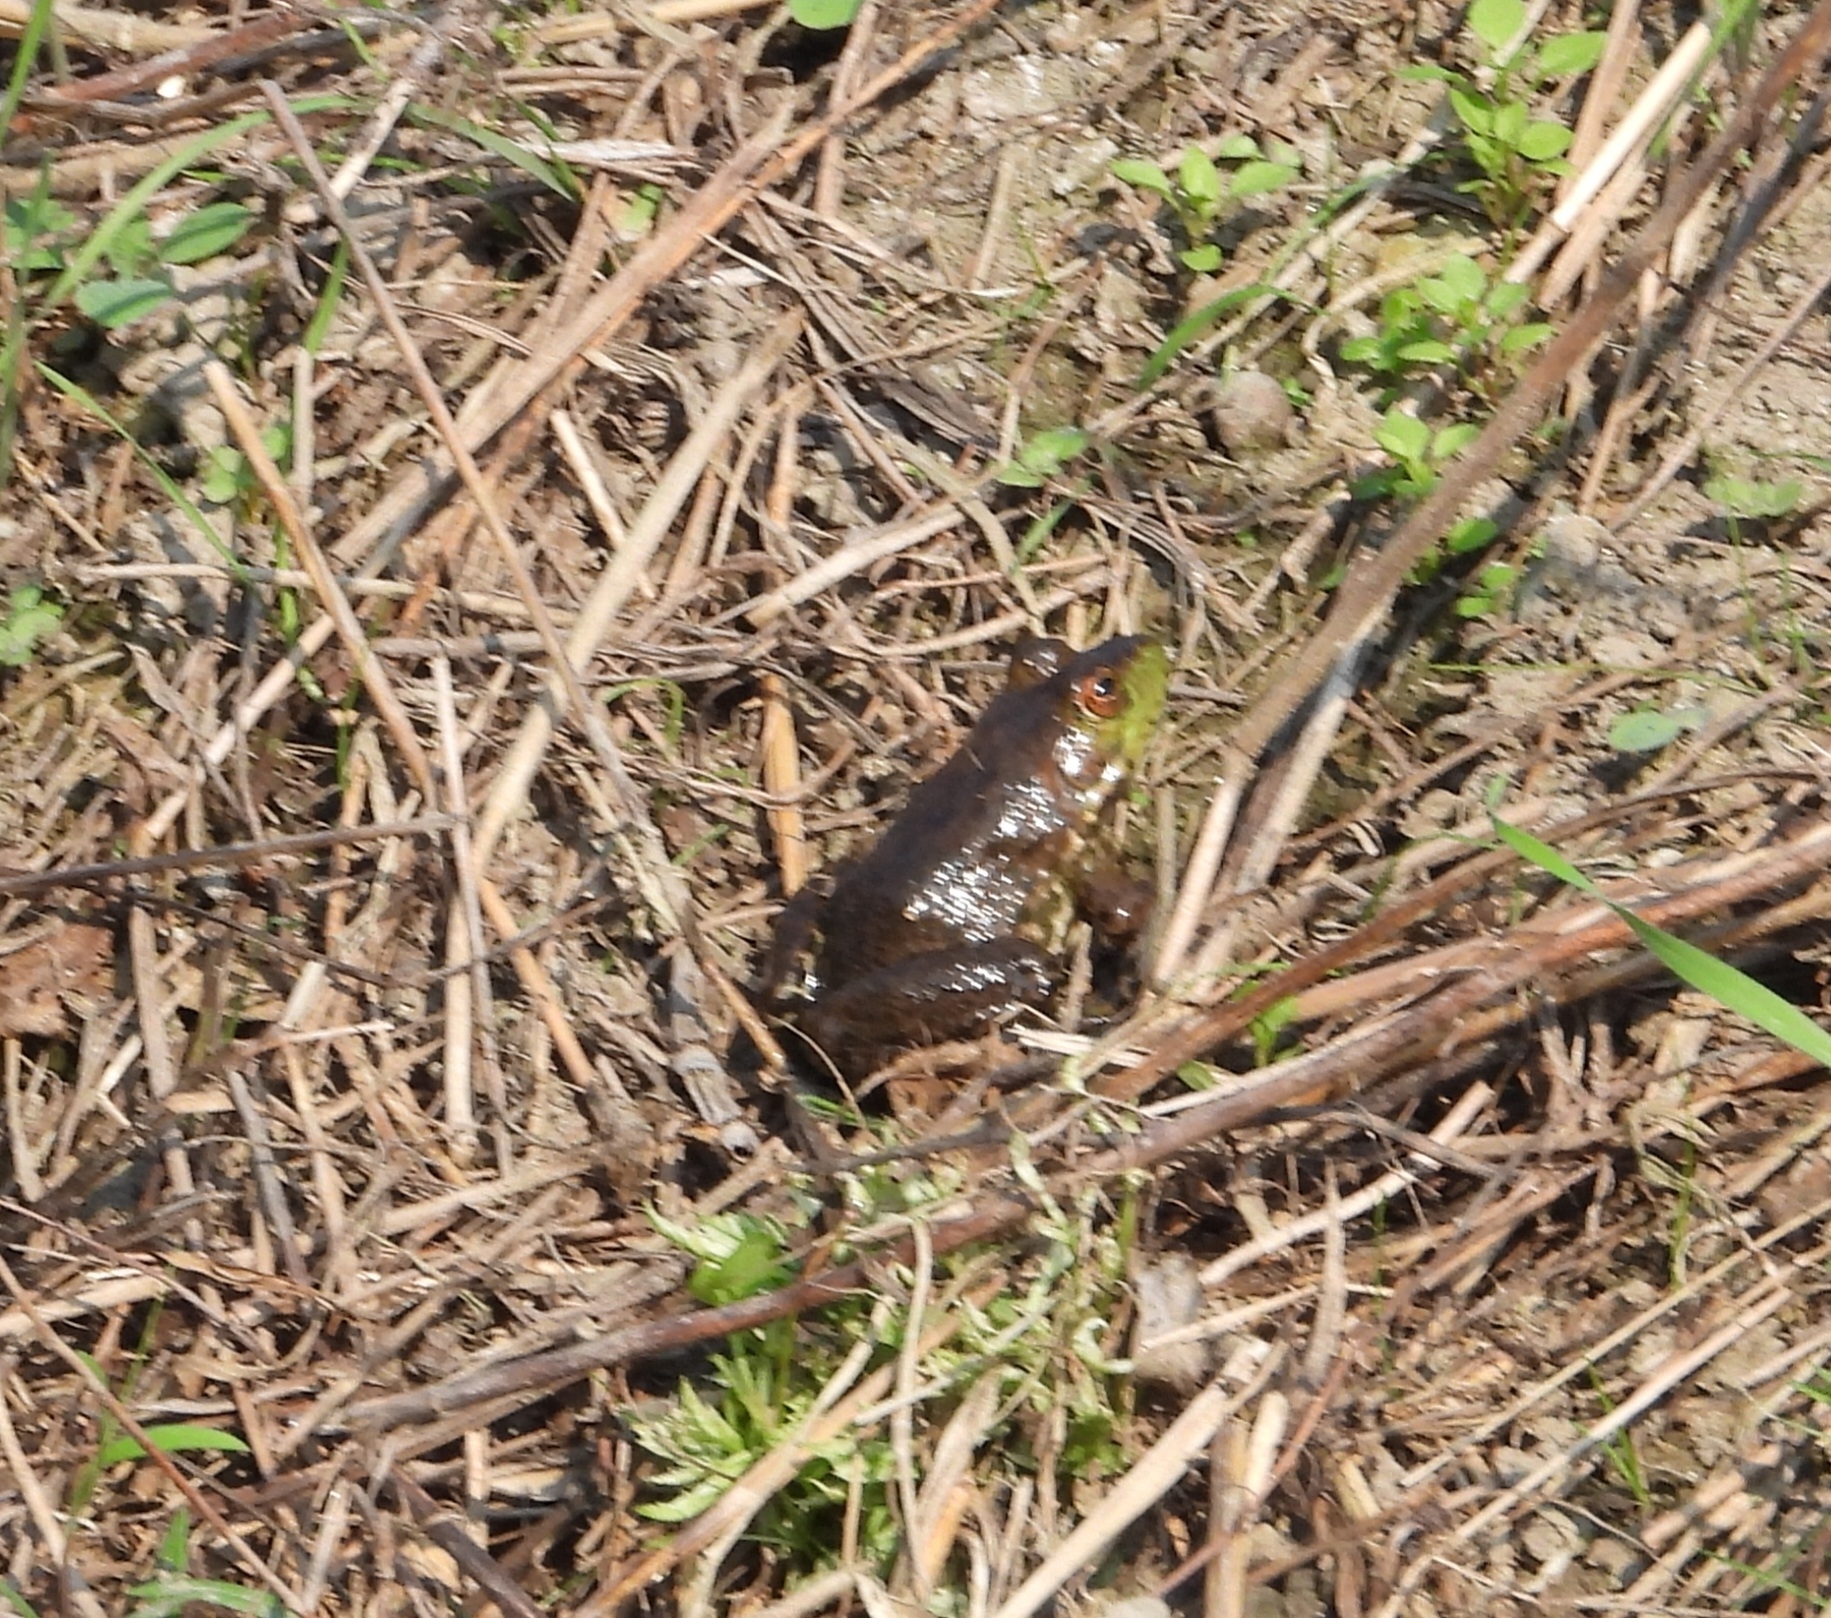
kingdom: Animalia
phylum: Chordata
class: Amphibia
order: Anura
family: Ranidae
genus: Lithobates
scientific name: Lithobates catesbeianus
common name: American bullfrog
